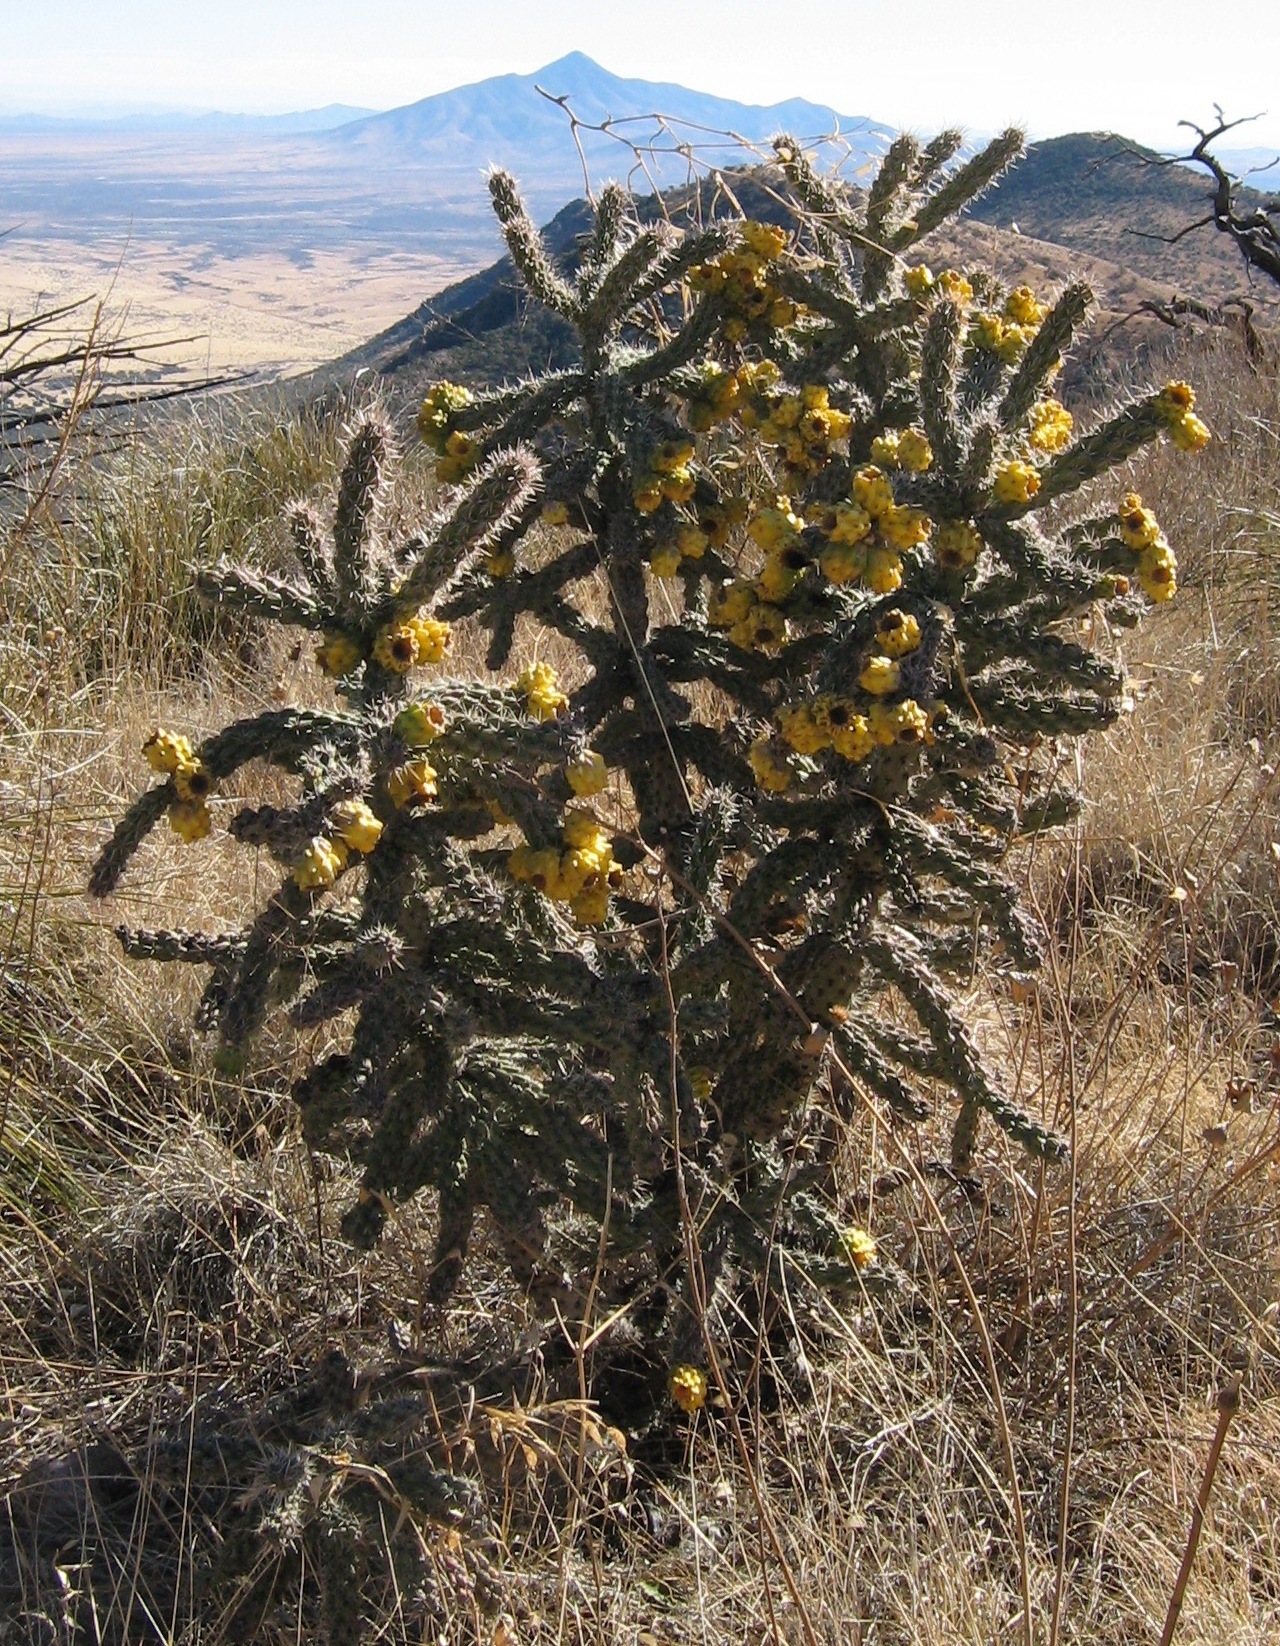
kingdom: Plantae
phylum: Tracheophyta
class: Magnoliopsida
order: Caryophyllales
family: Cactaceae
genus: Cylindropuntia
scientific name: Cylindropuntia imbricata
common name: Candelabrum cactus
